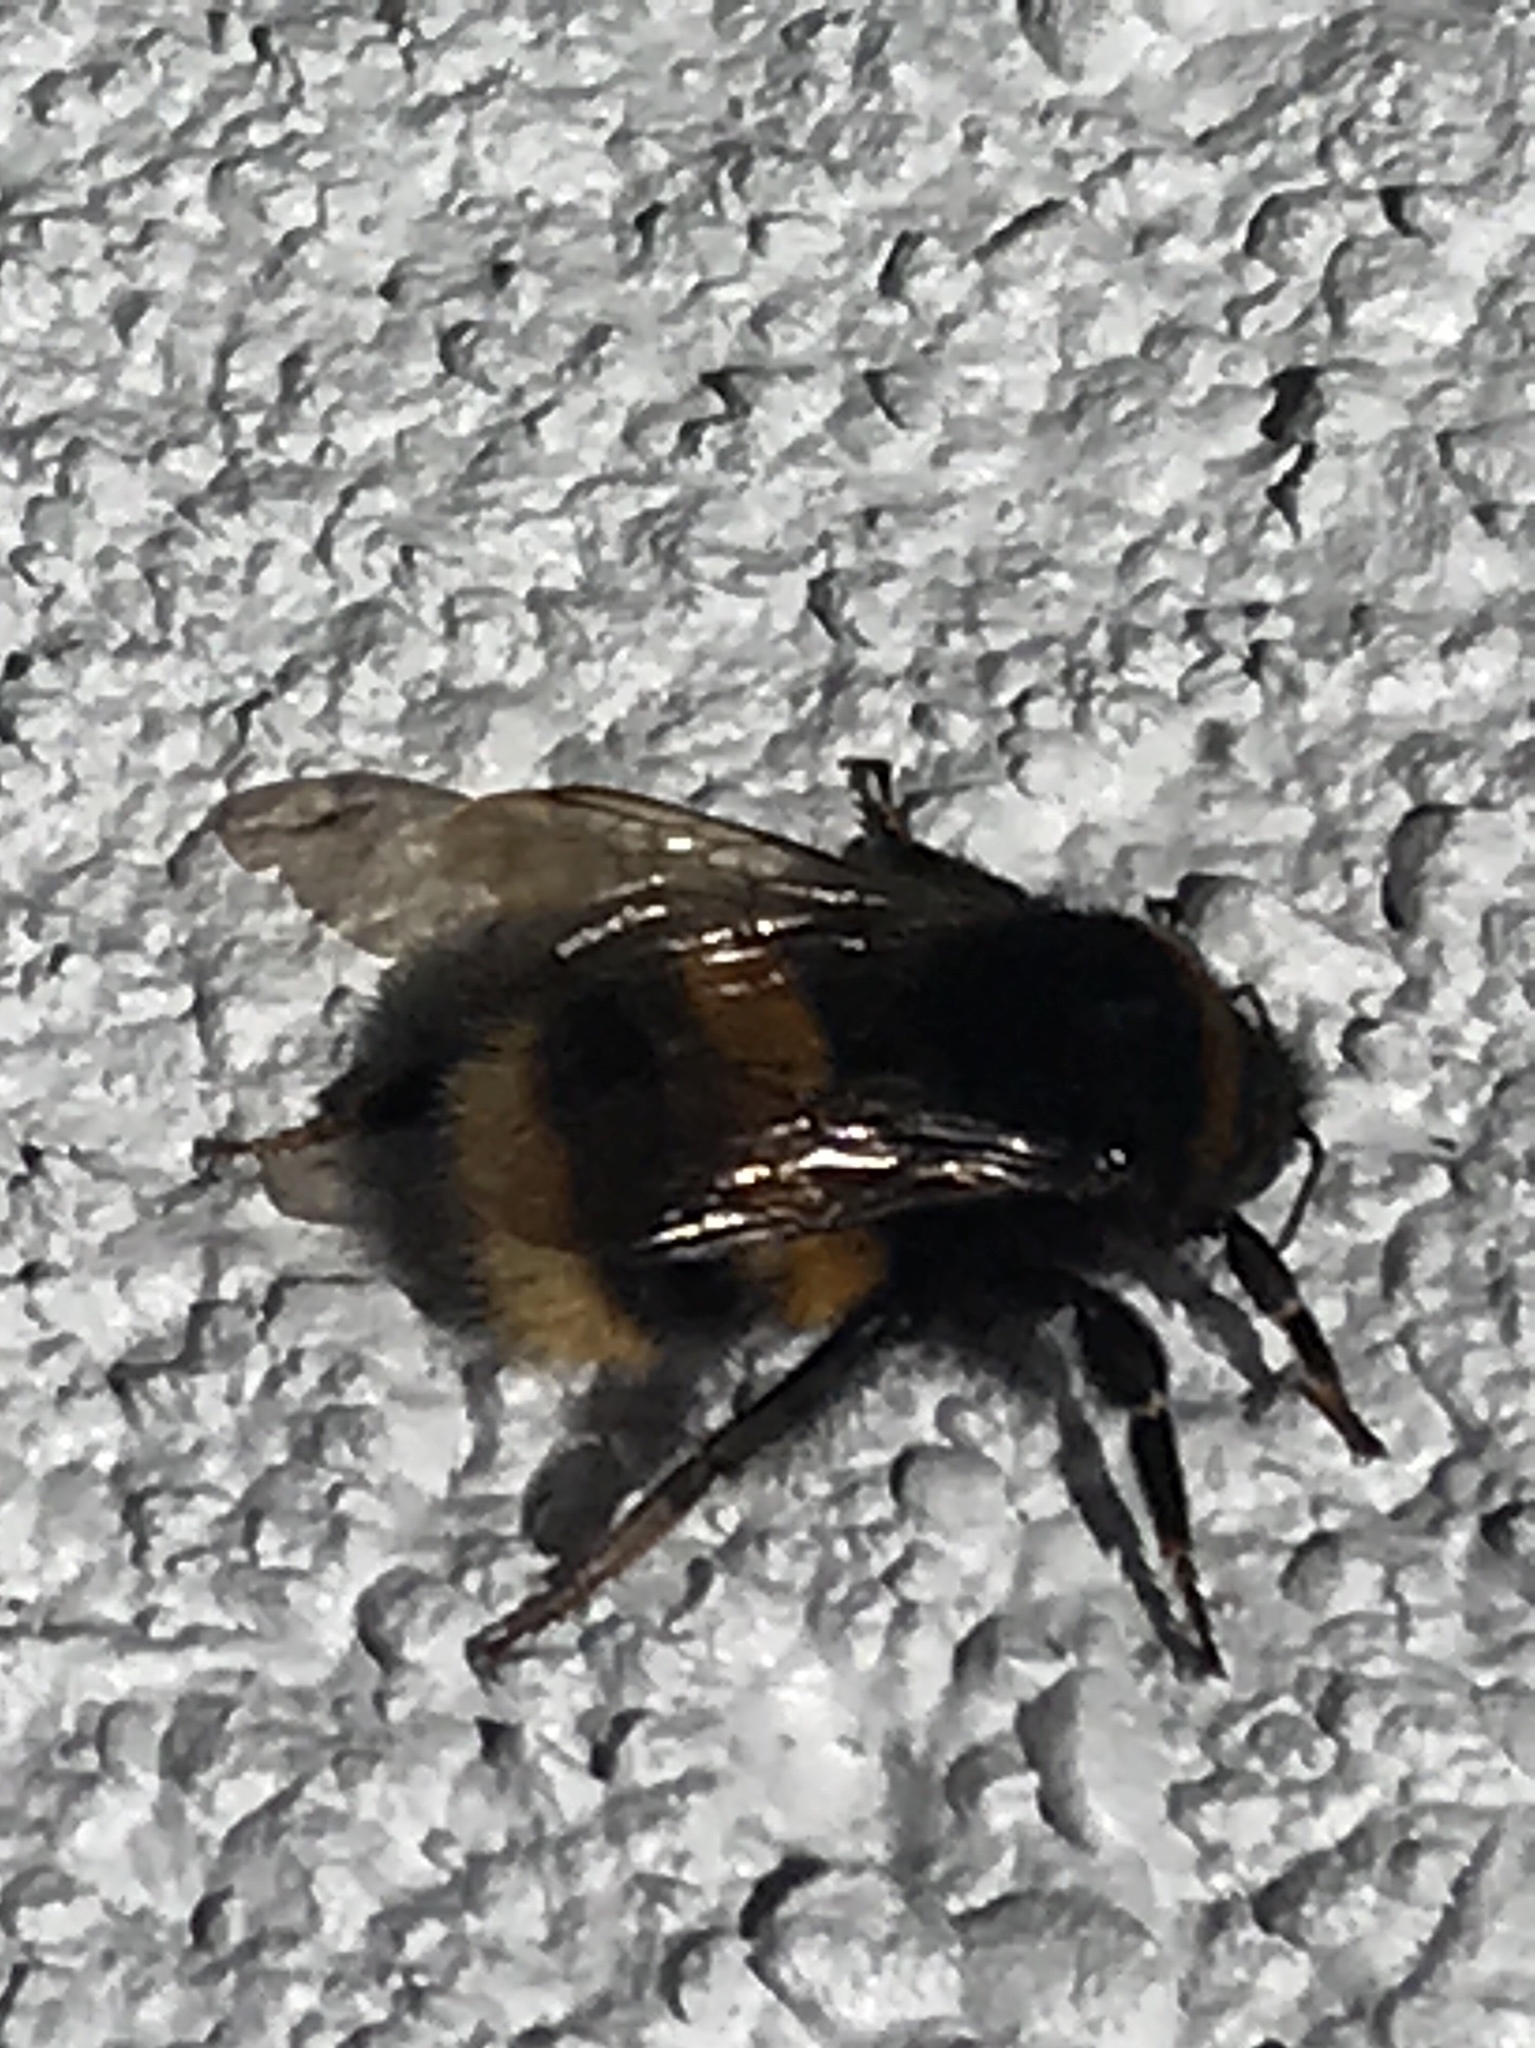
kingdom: Animalia
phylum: Arthropoda
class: Insecta
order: Hymenoptera
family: Apidae
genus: Bombus
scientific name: Bombus terrestris
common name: Buff-tailed bumblebee
